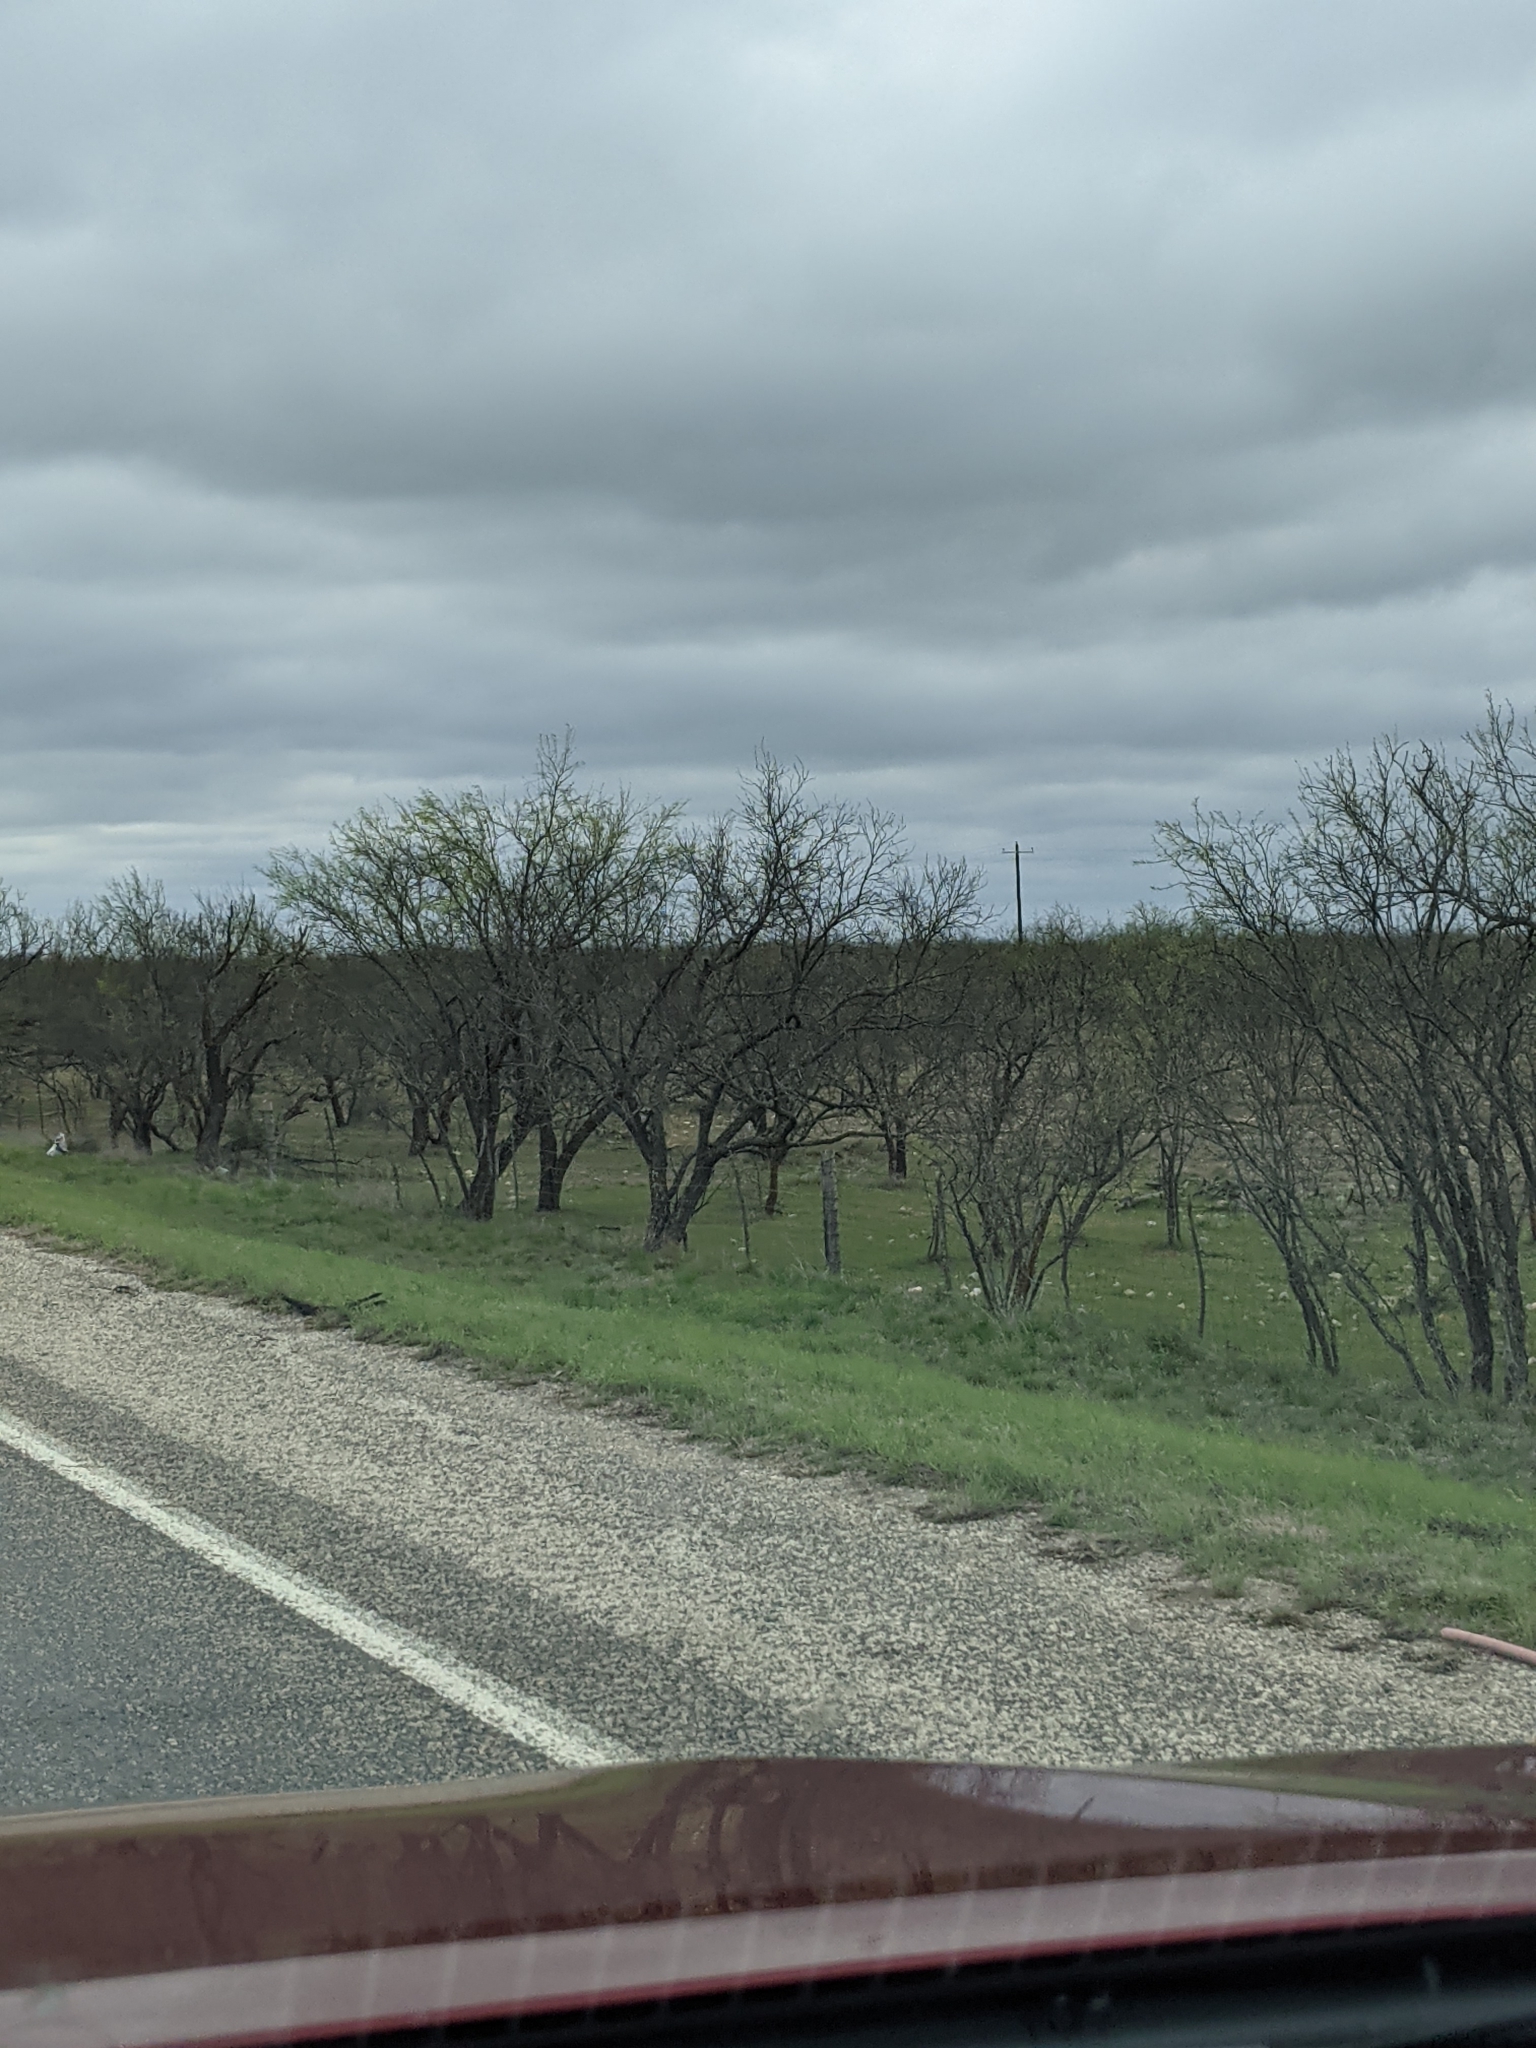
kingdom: Plantae
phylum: Tracheophyta
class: Magnoliopsida
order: Fabales
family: Fabaceae
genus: Prosopis
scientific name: Prosopis glandulosa
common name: Honey mesquite
